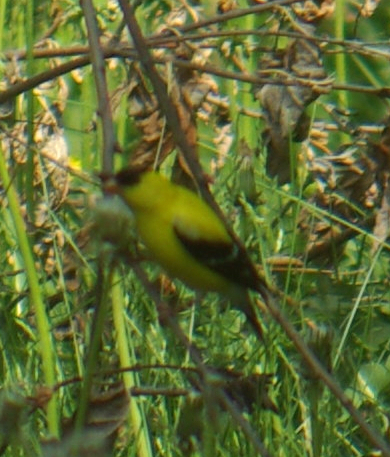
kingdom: Animalia
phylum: Chordata
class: Aves
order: Passeriformes
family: Fringillidae
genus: Spinus
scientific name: Spinus tristis
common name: American goldfinch
